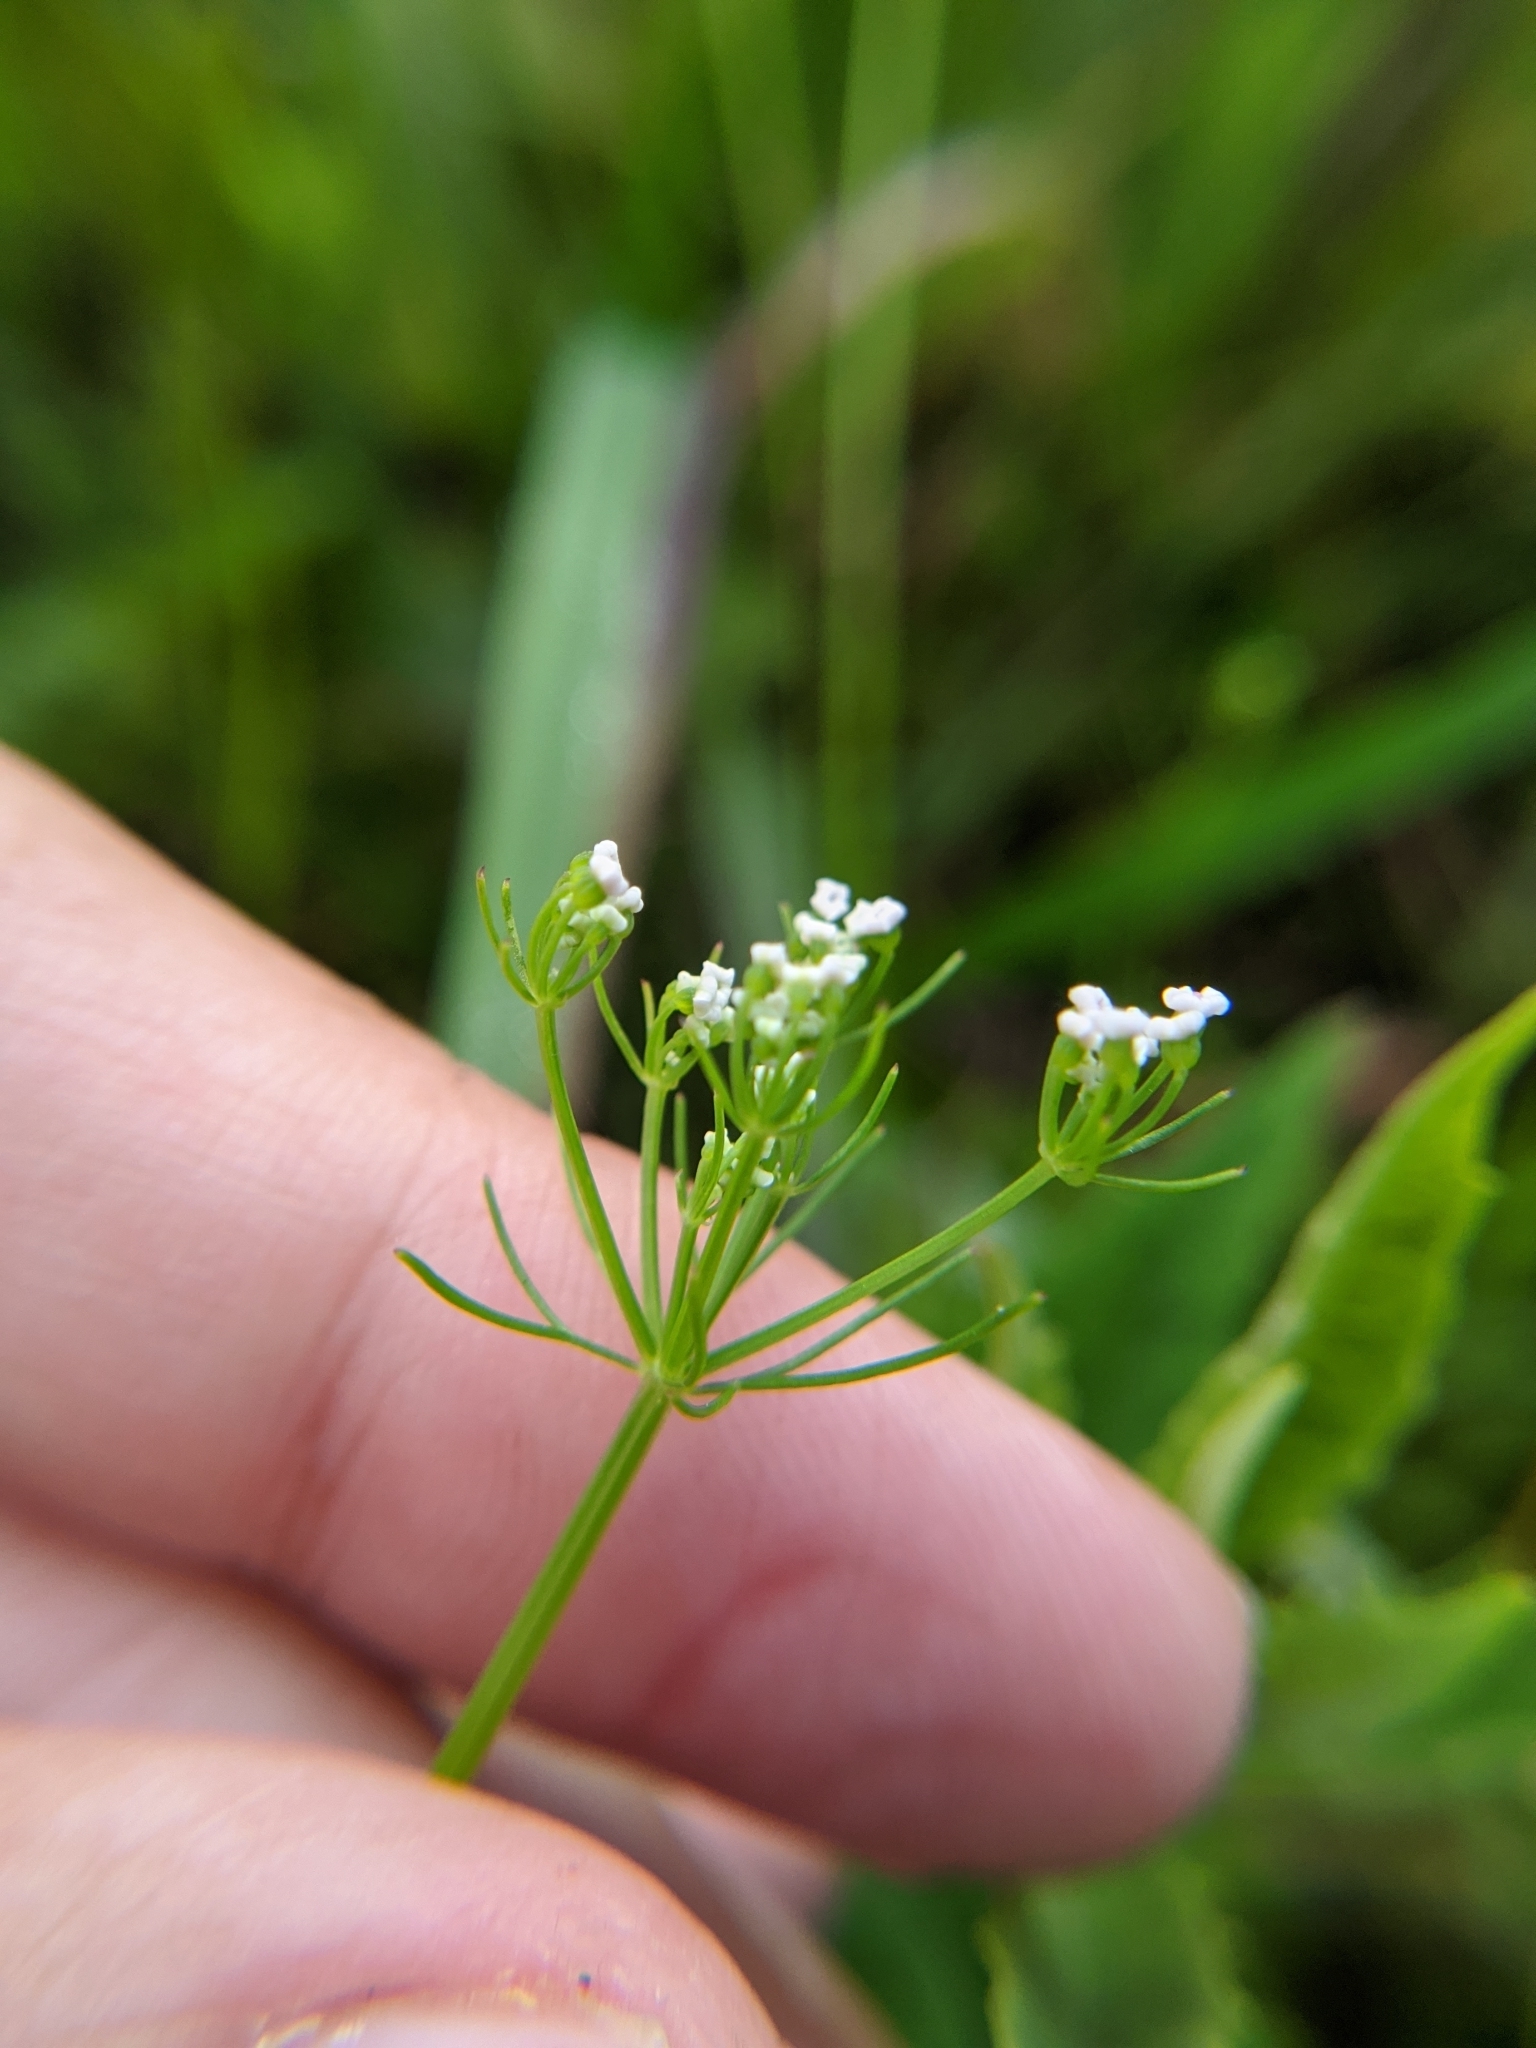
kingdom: Plantae
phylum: Tracheophyta
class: Magnoliopsida
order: Apiales
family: Apiaceae
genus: Ptilimnium
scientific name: Ptilimnium capillaceum
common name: Herbwilliam
